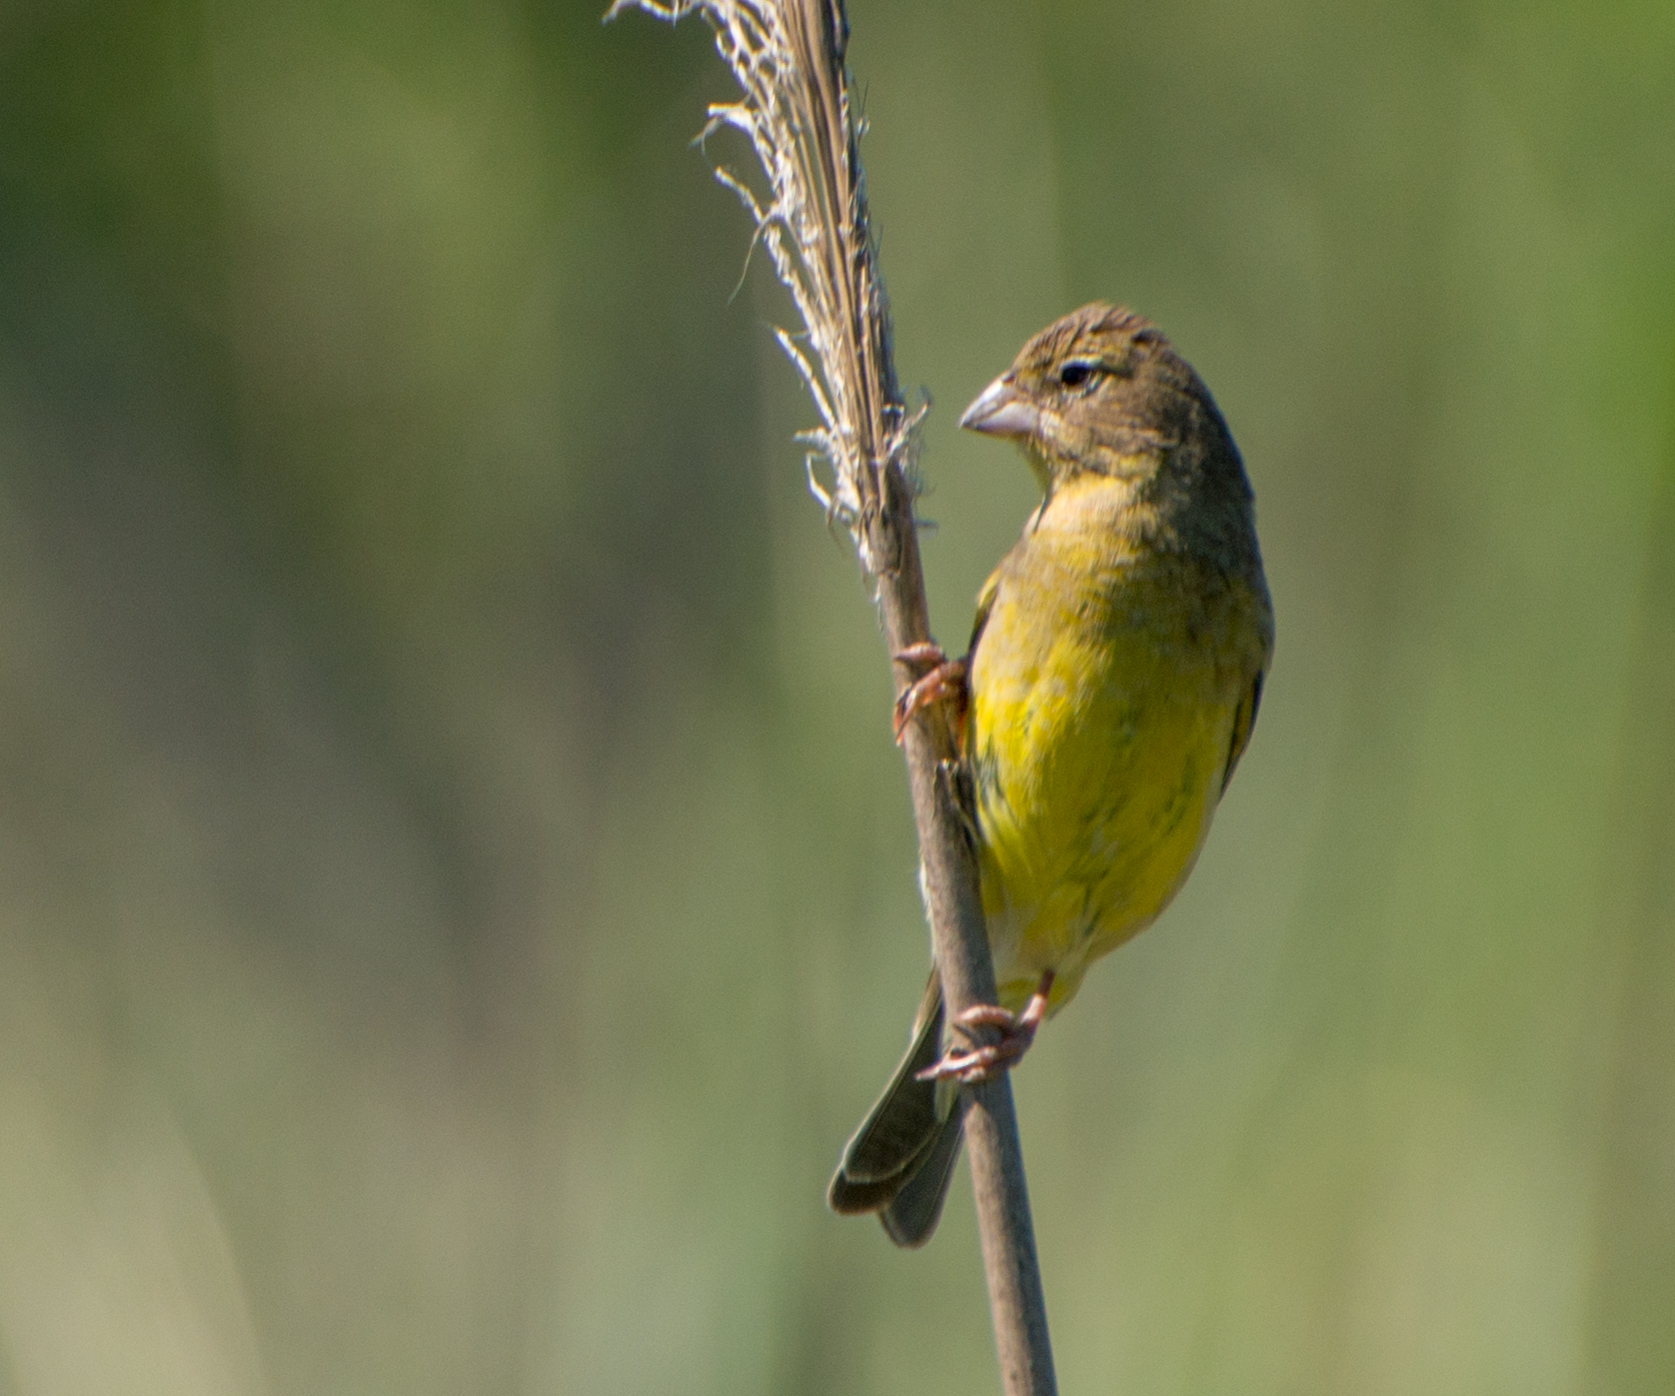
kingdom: Animalia
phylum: Chordata
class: Aves
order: Passeriformes
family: Thraupidae
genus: Sicalis
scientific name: Sicalis luteola
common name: Grassland yellow-finch
